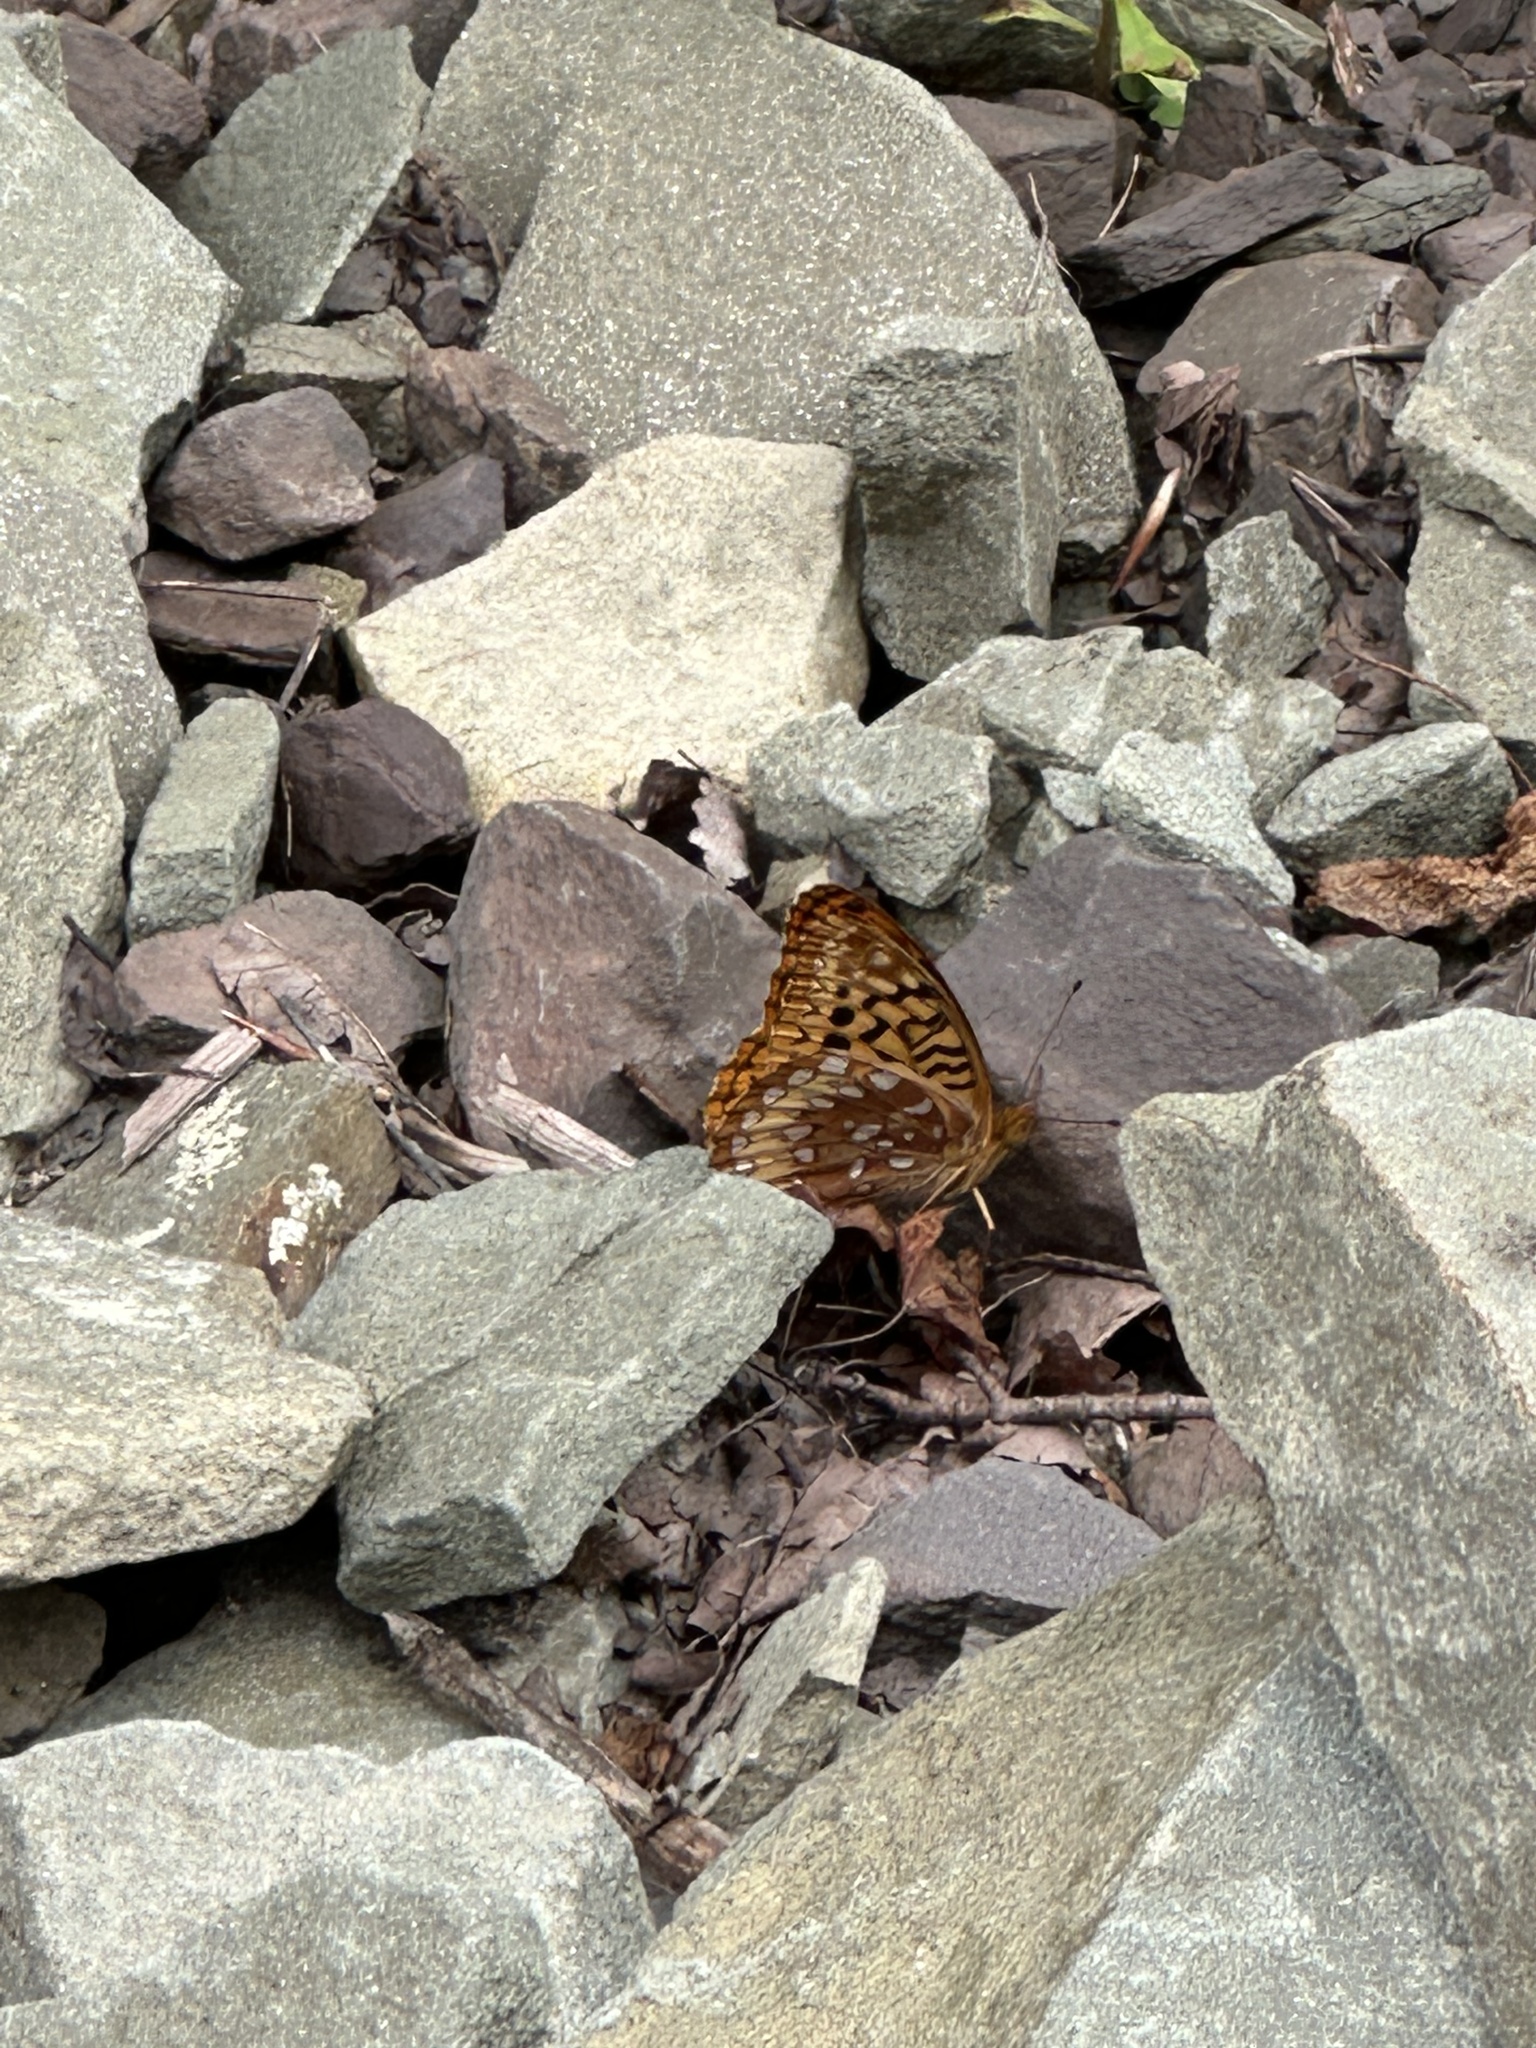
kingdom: Animalia
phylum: Arthropoda
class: Insecta
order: Lepidoptera
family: Nymphalidae
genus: Speyeria
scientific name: Speyeria cybele
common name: Great spangled fritillary
